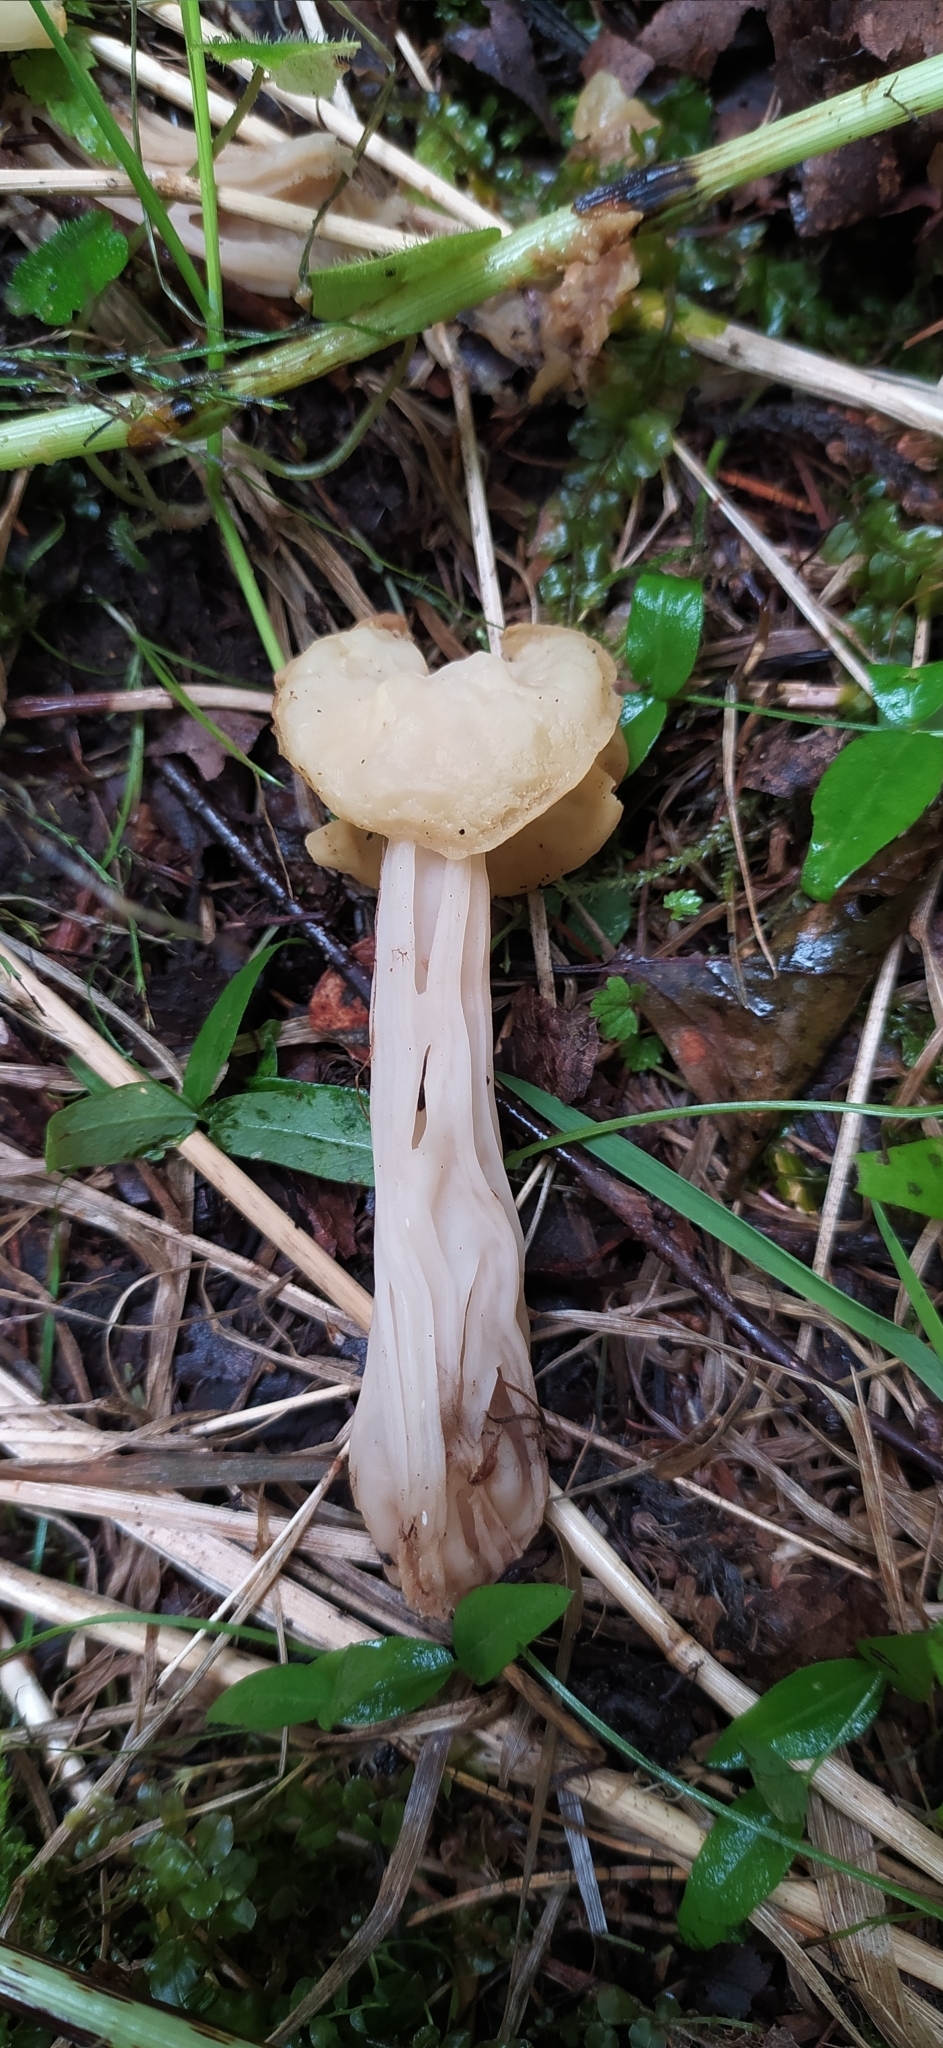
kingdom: Fungi
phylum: Ascomycota
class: Pezizomycetes
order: Pezizales
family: Helvellaceae
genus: Helvella
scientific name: Helvella crispa
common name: White saddle
